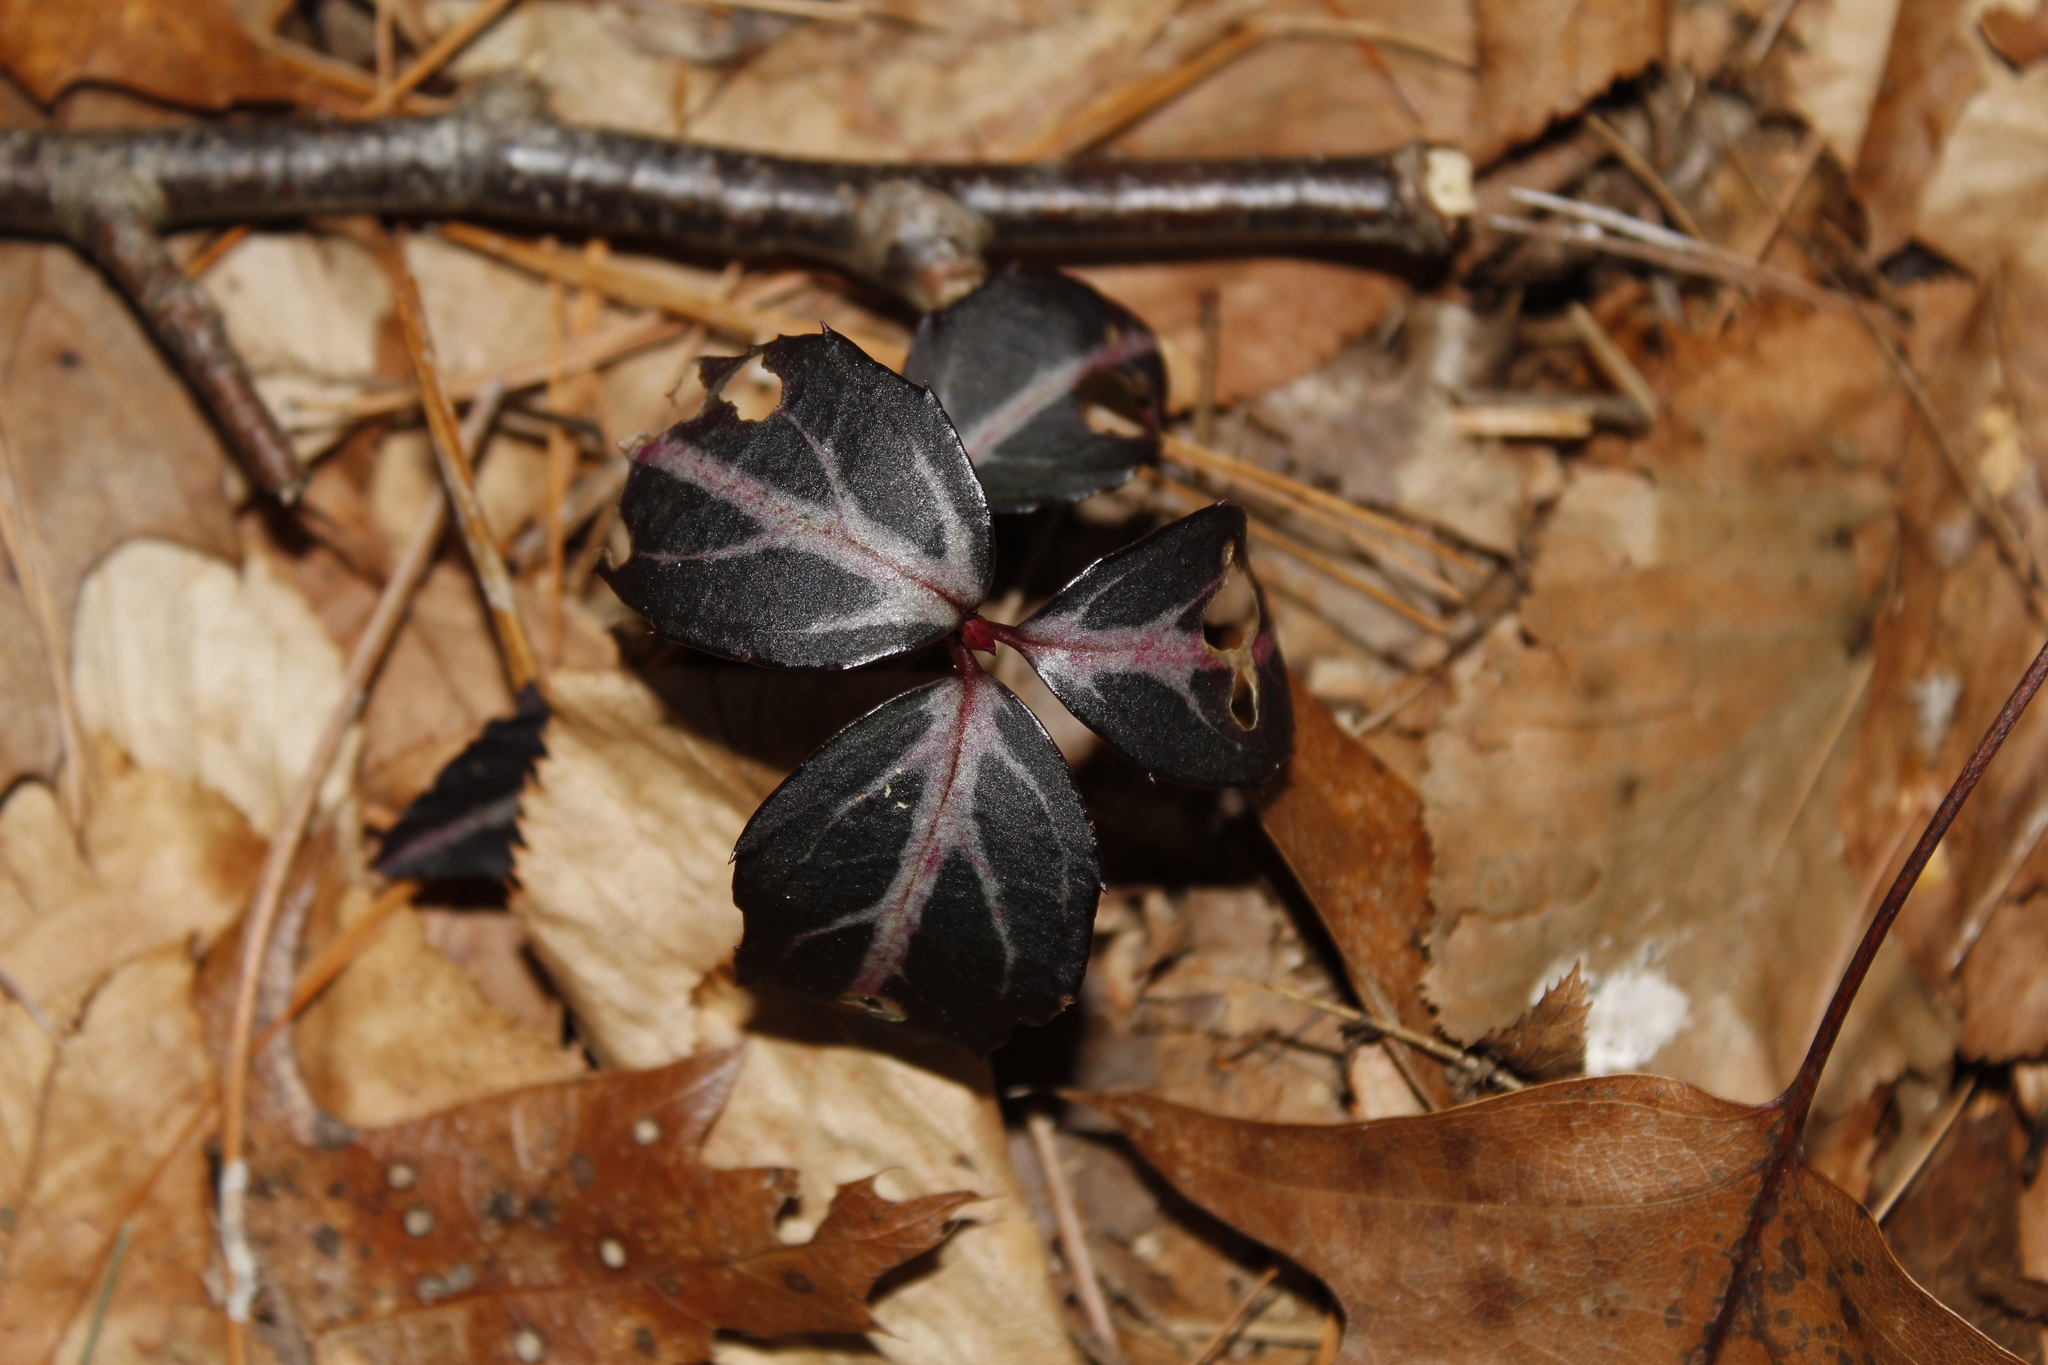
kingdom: Plantae
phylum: Tracheophyta
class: Magnoliopsida
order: Ericales
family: Ericaceae
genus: Chimaphila
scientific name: Chimaphila maculata
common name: Spotted pipsissewa
